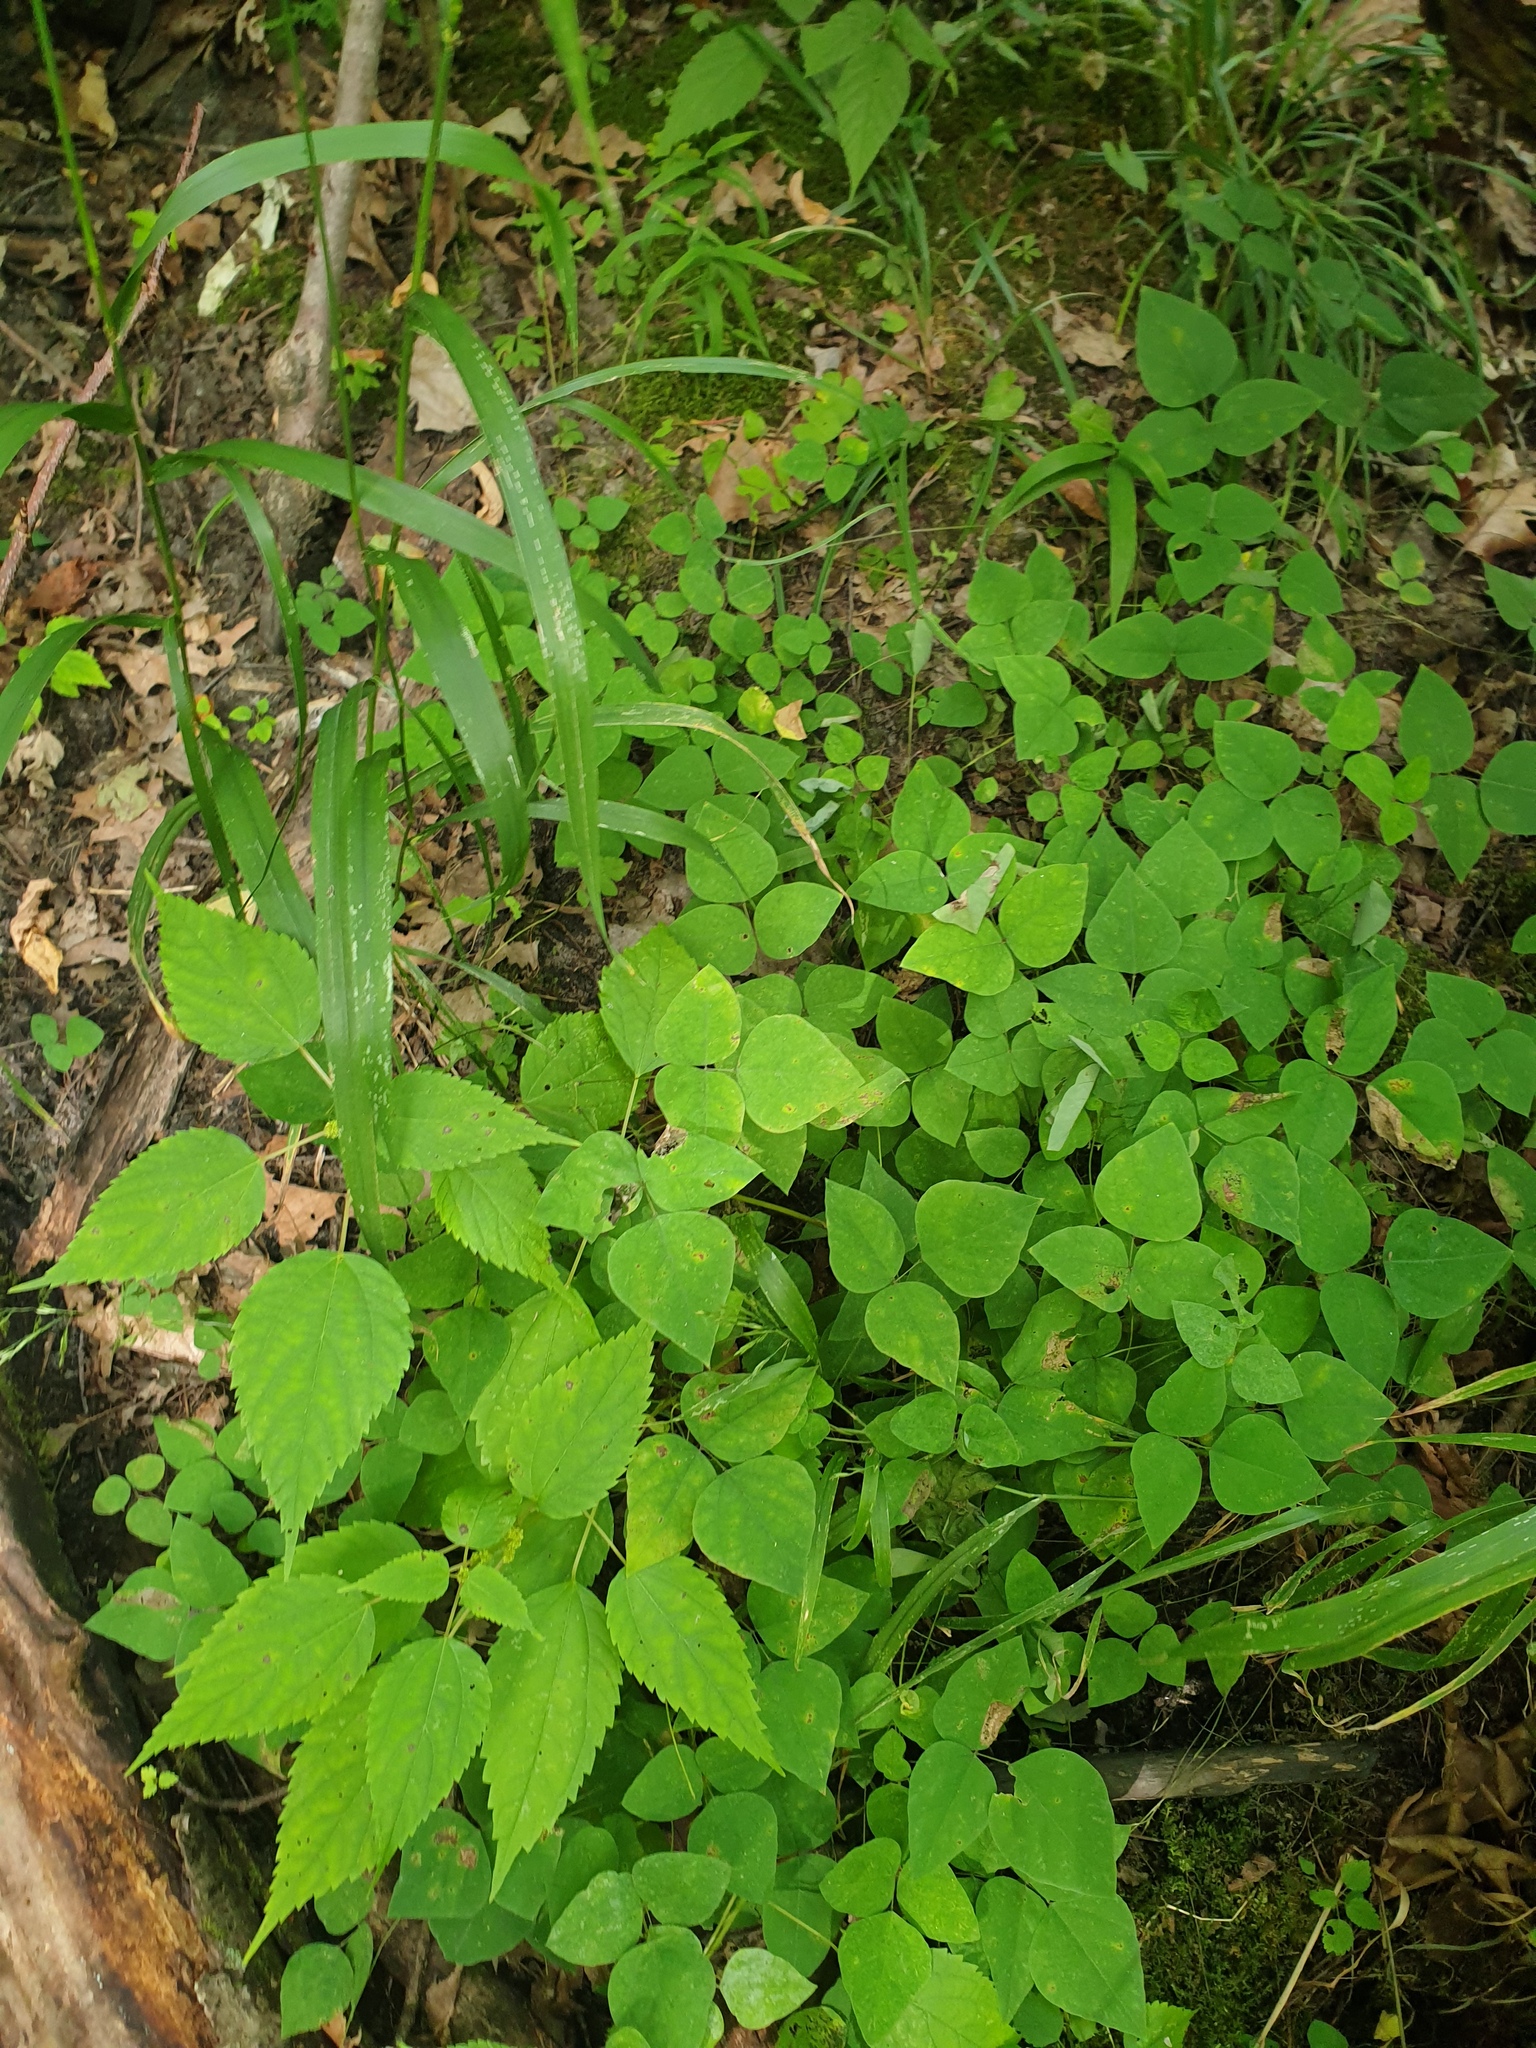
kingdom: Plantae
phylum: Tracheophyta
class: Magnoliopsida
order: Fabales
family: Fabaceae
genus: Amphicarpaea
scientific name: Amphicarpaea bracteata
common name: American hog peanut
